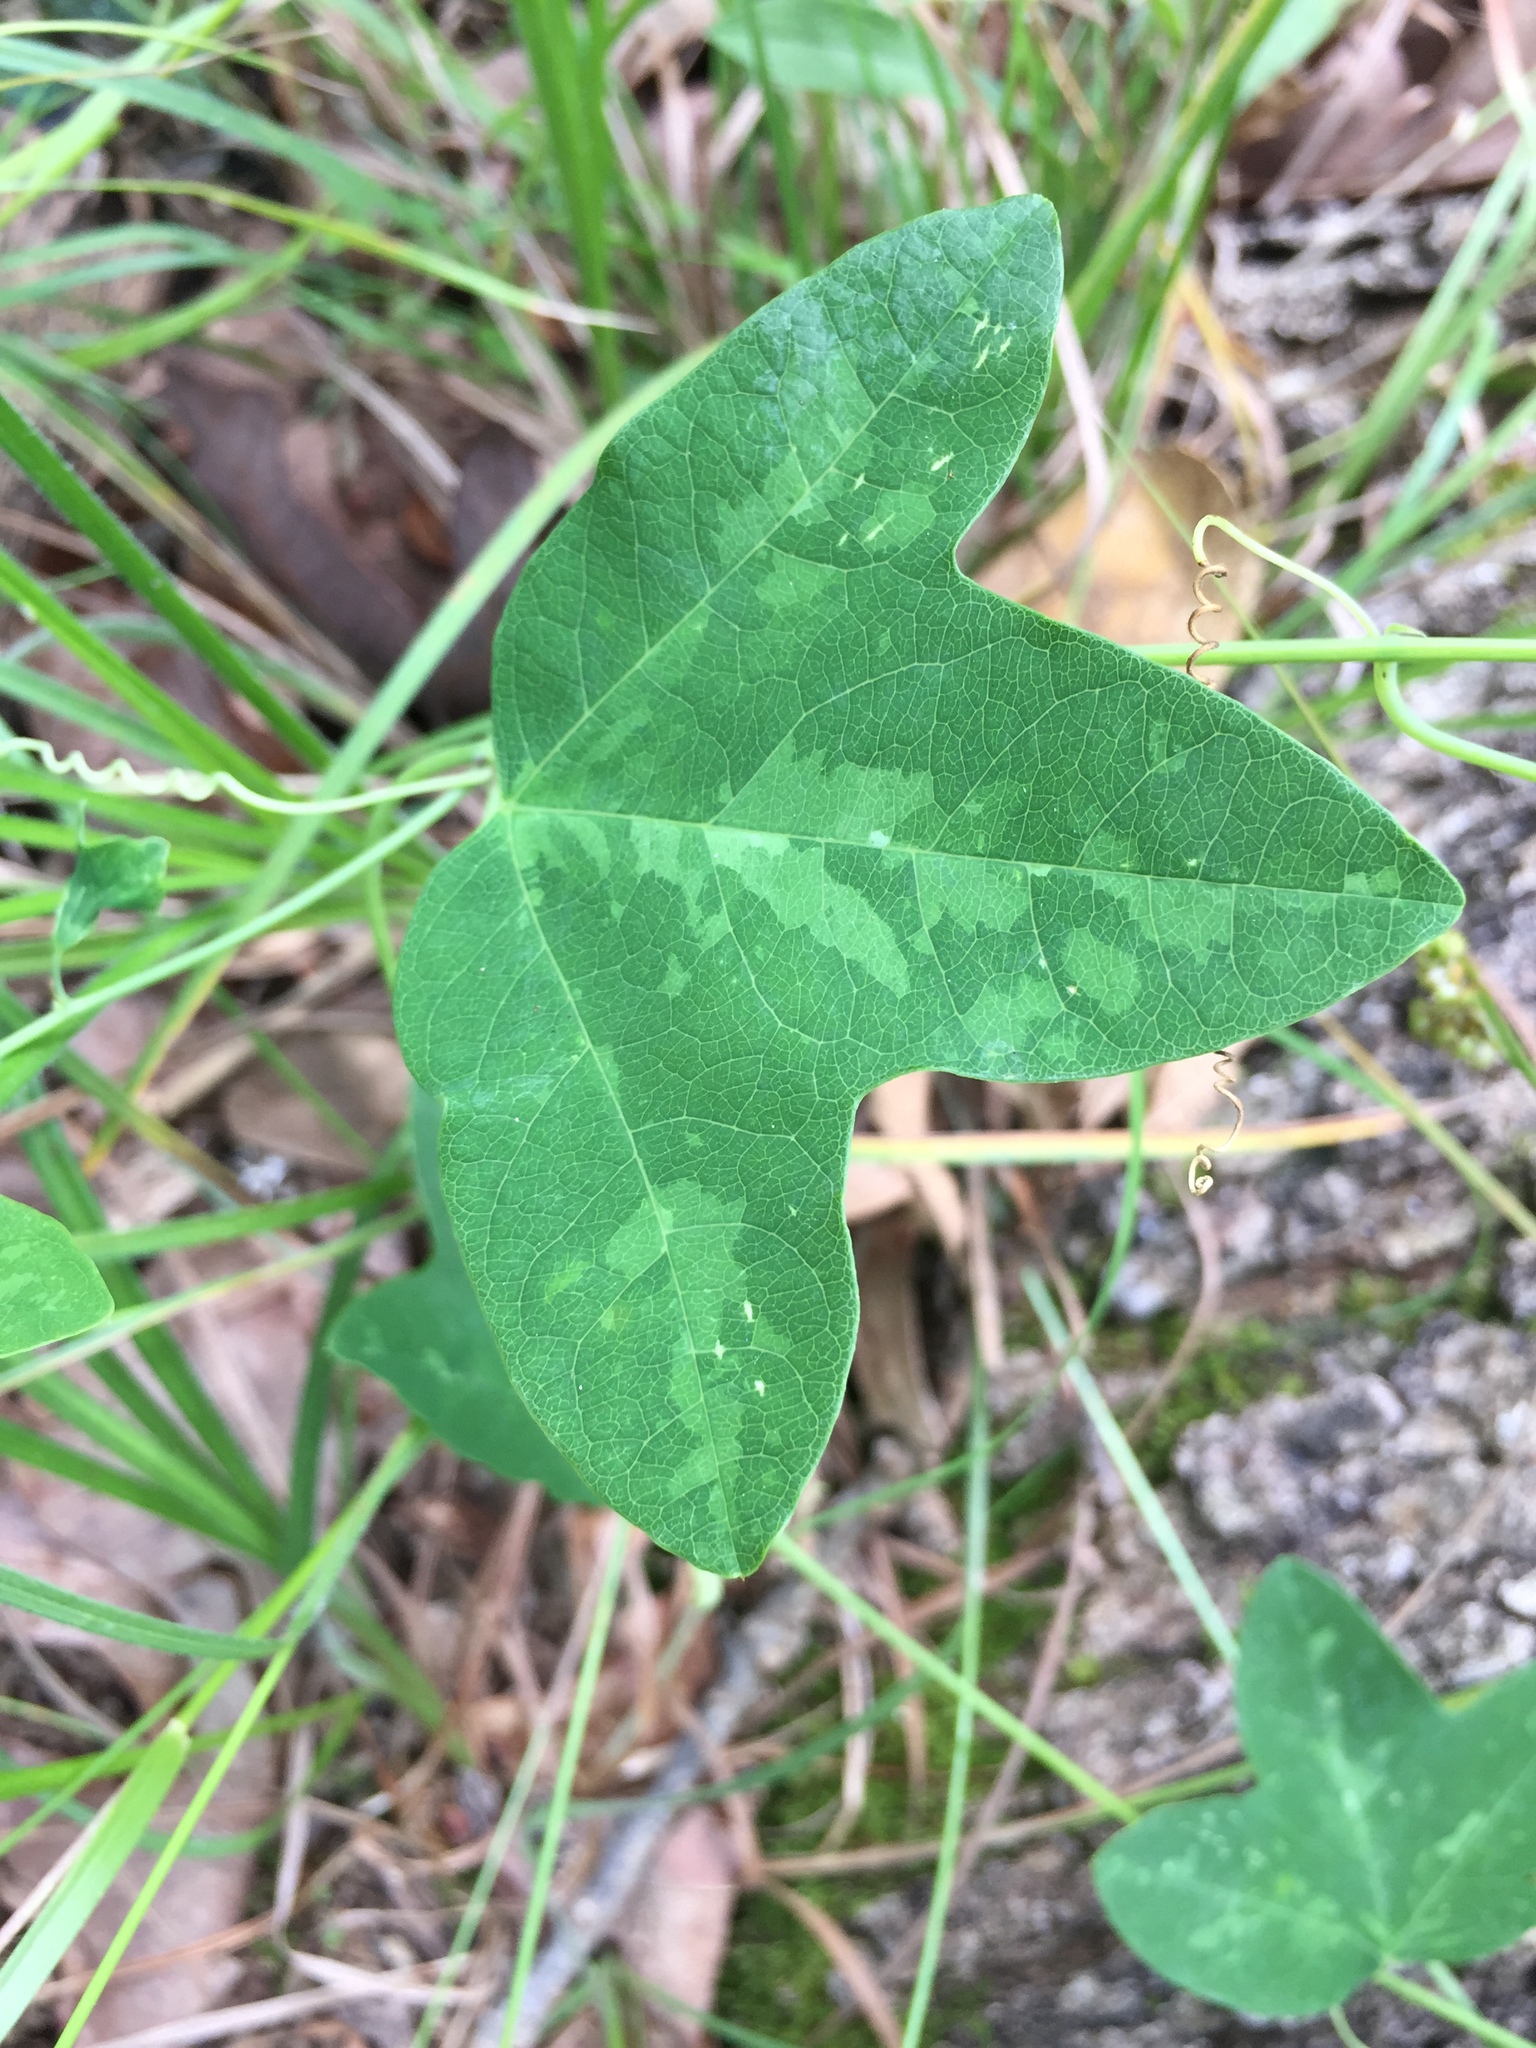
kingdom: Plantae
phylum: Tracheophyta
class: Magnoliopsida
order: Malpighiales
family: Passifloraceae
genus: Passiflora
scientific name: Passiflora lutea
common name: Yellow passionflower
